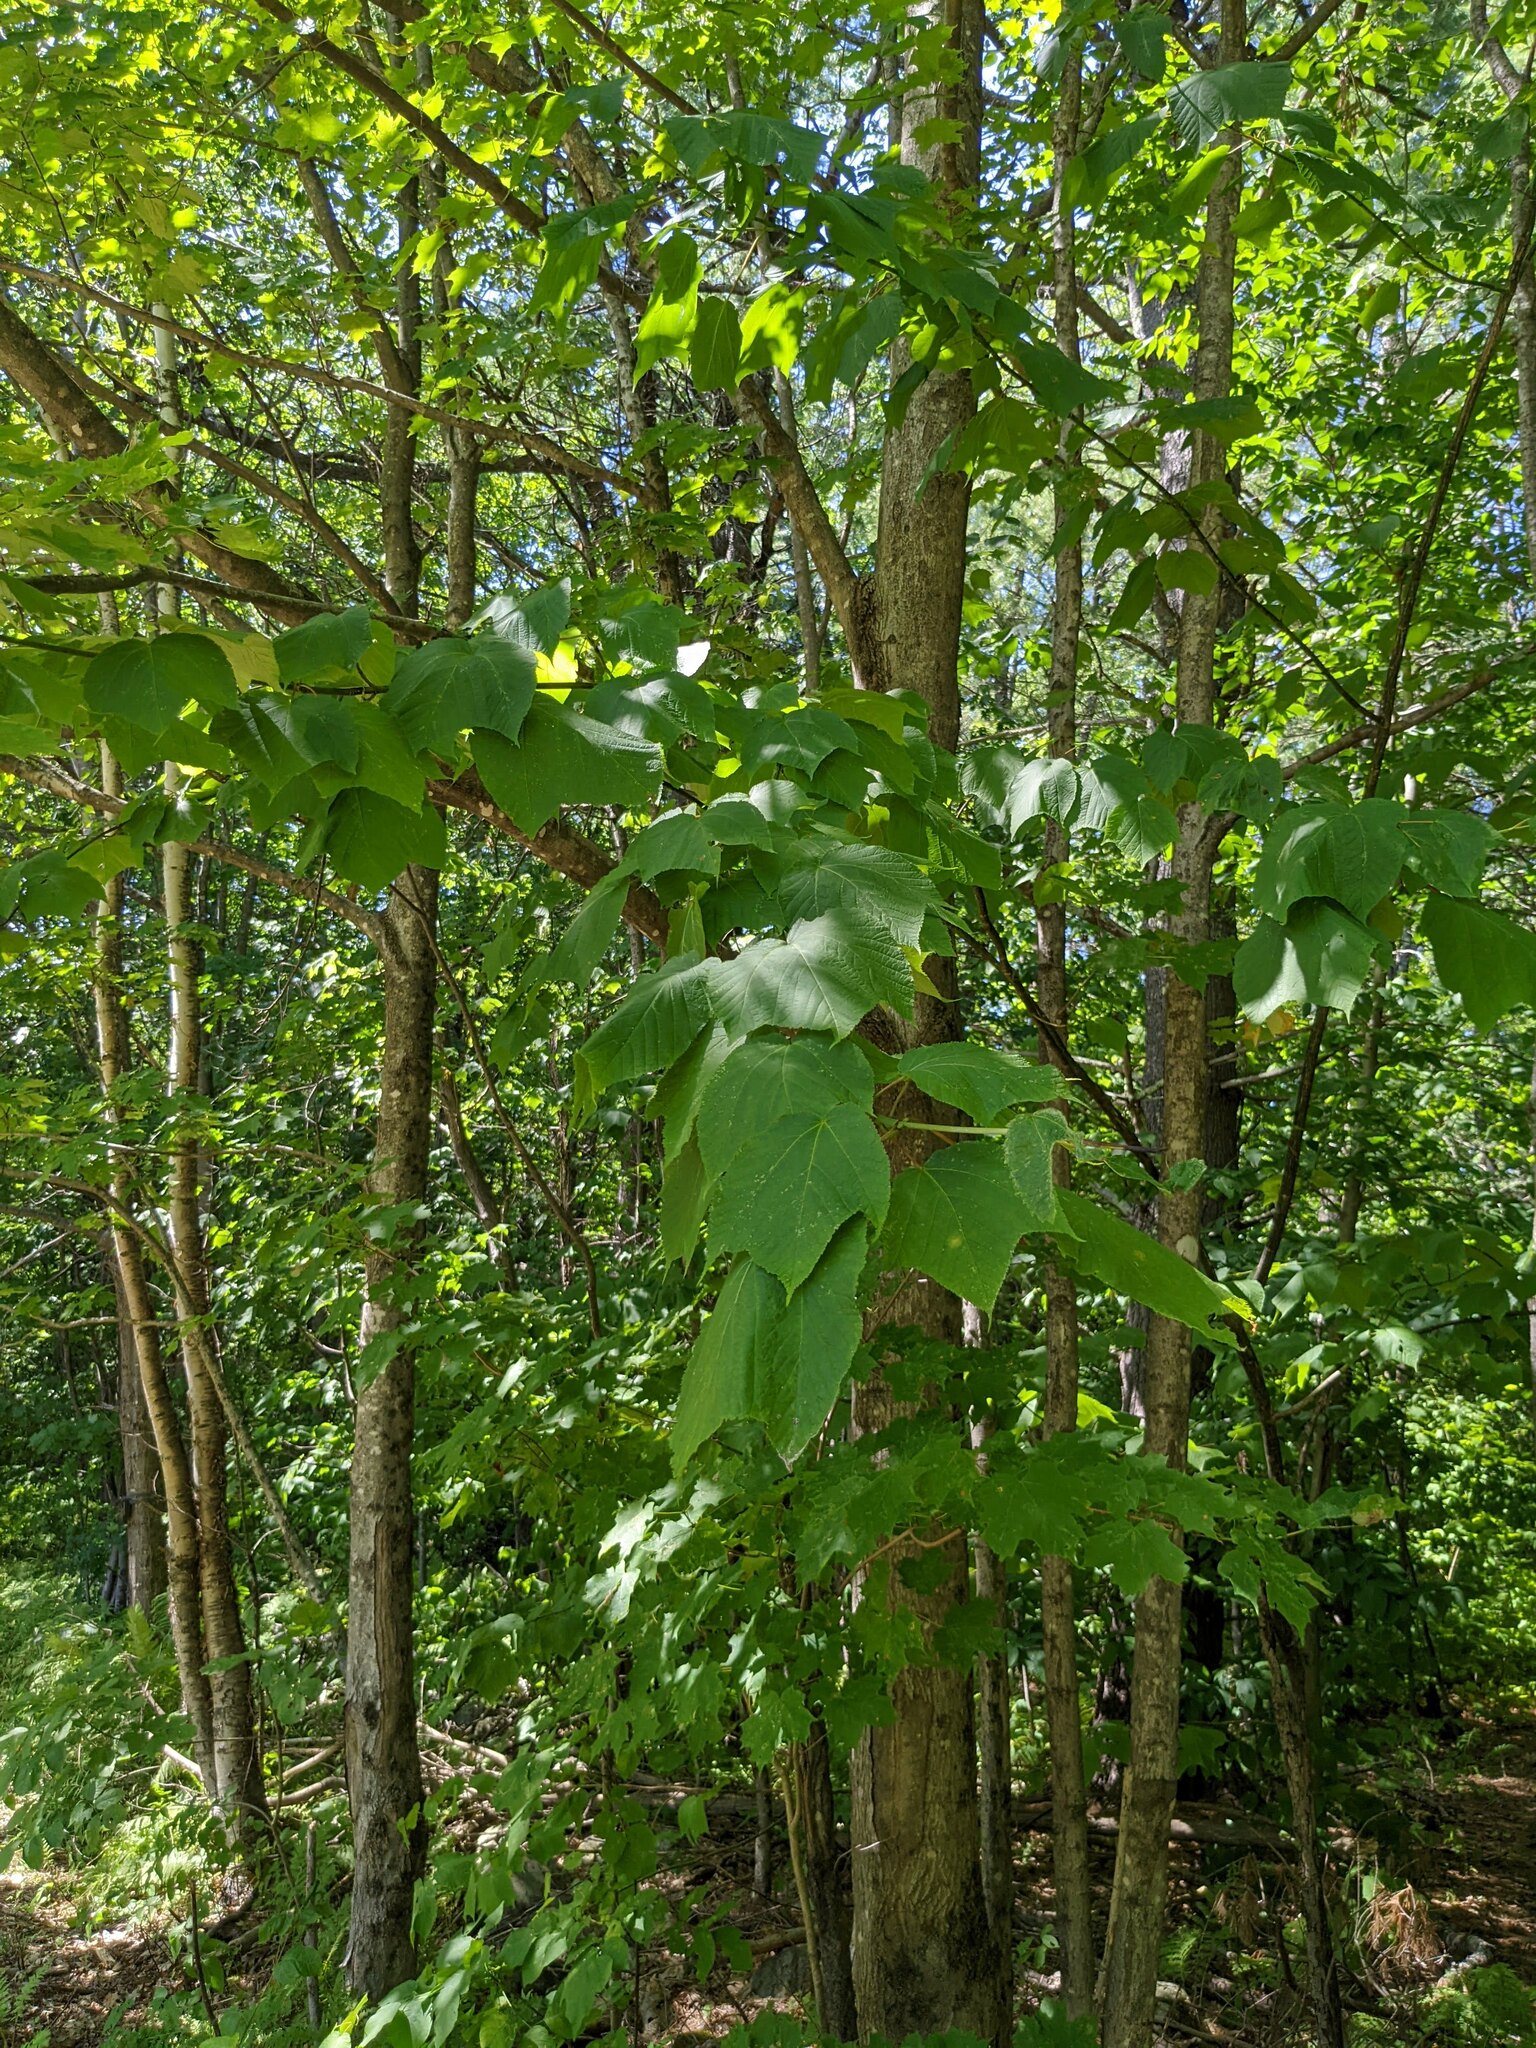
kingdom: Plantae
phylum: Tracheophyta
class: Magnoliopsida
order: Sapindales
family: Sapindaceae
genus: Acer
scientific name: Acer pensylvanicum
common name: Moosewood
